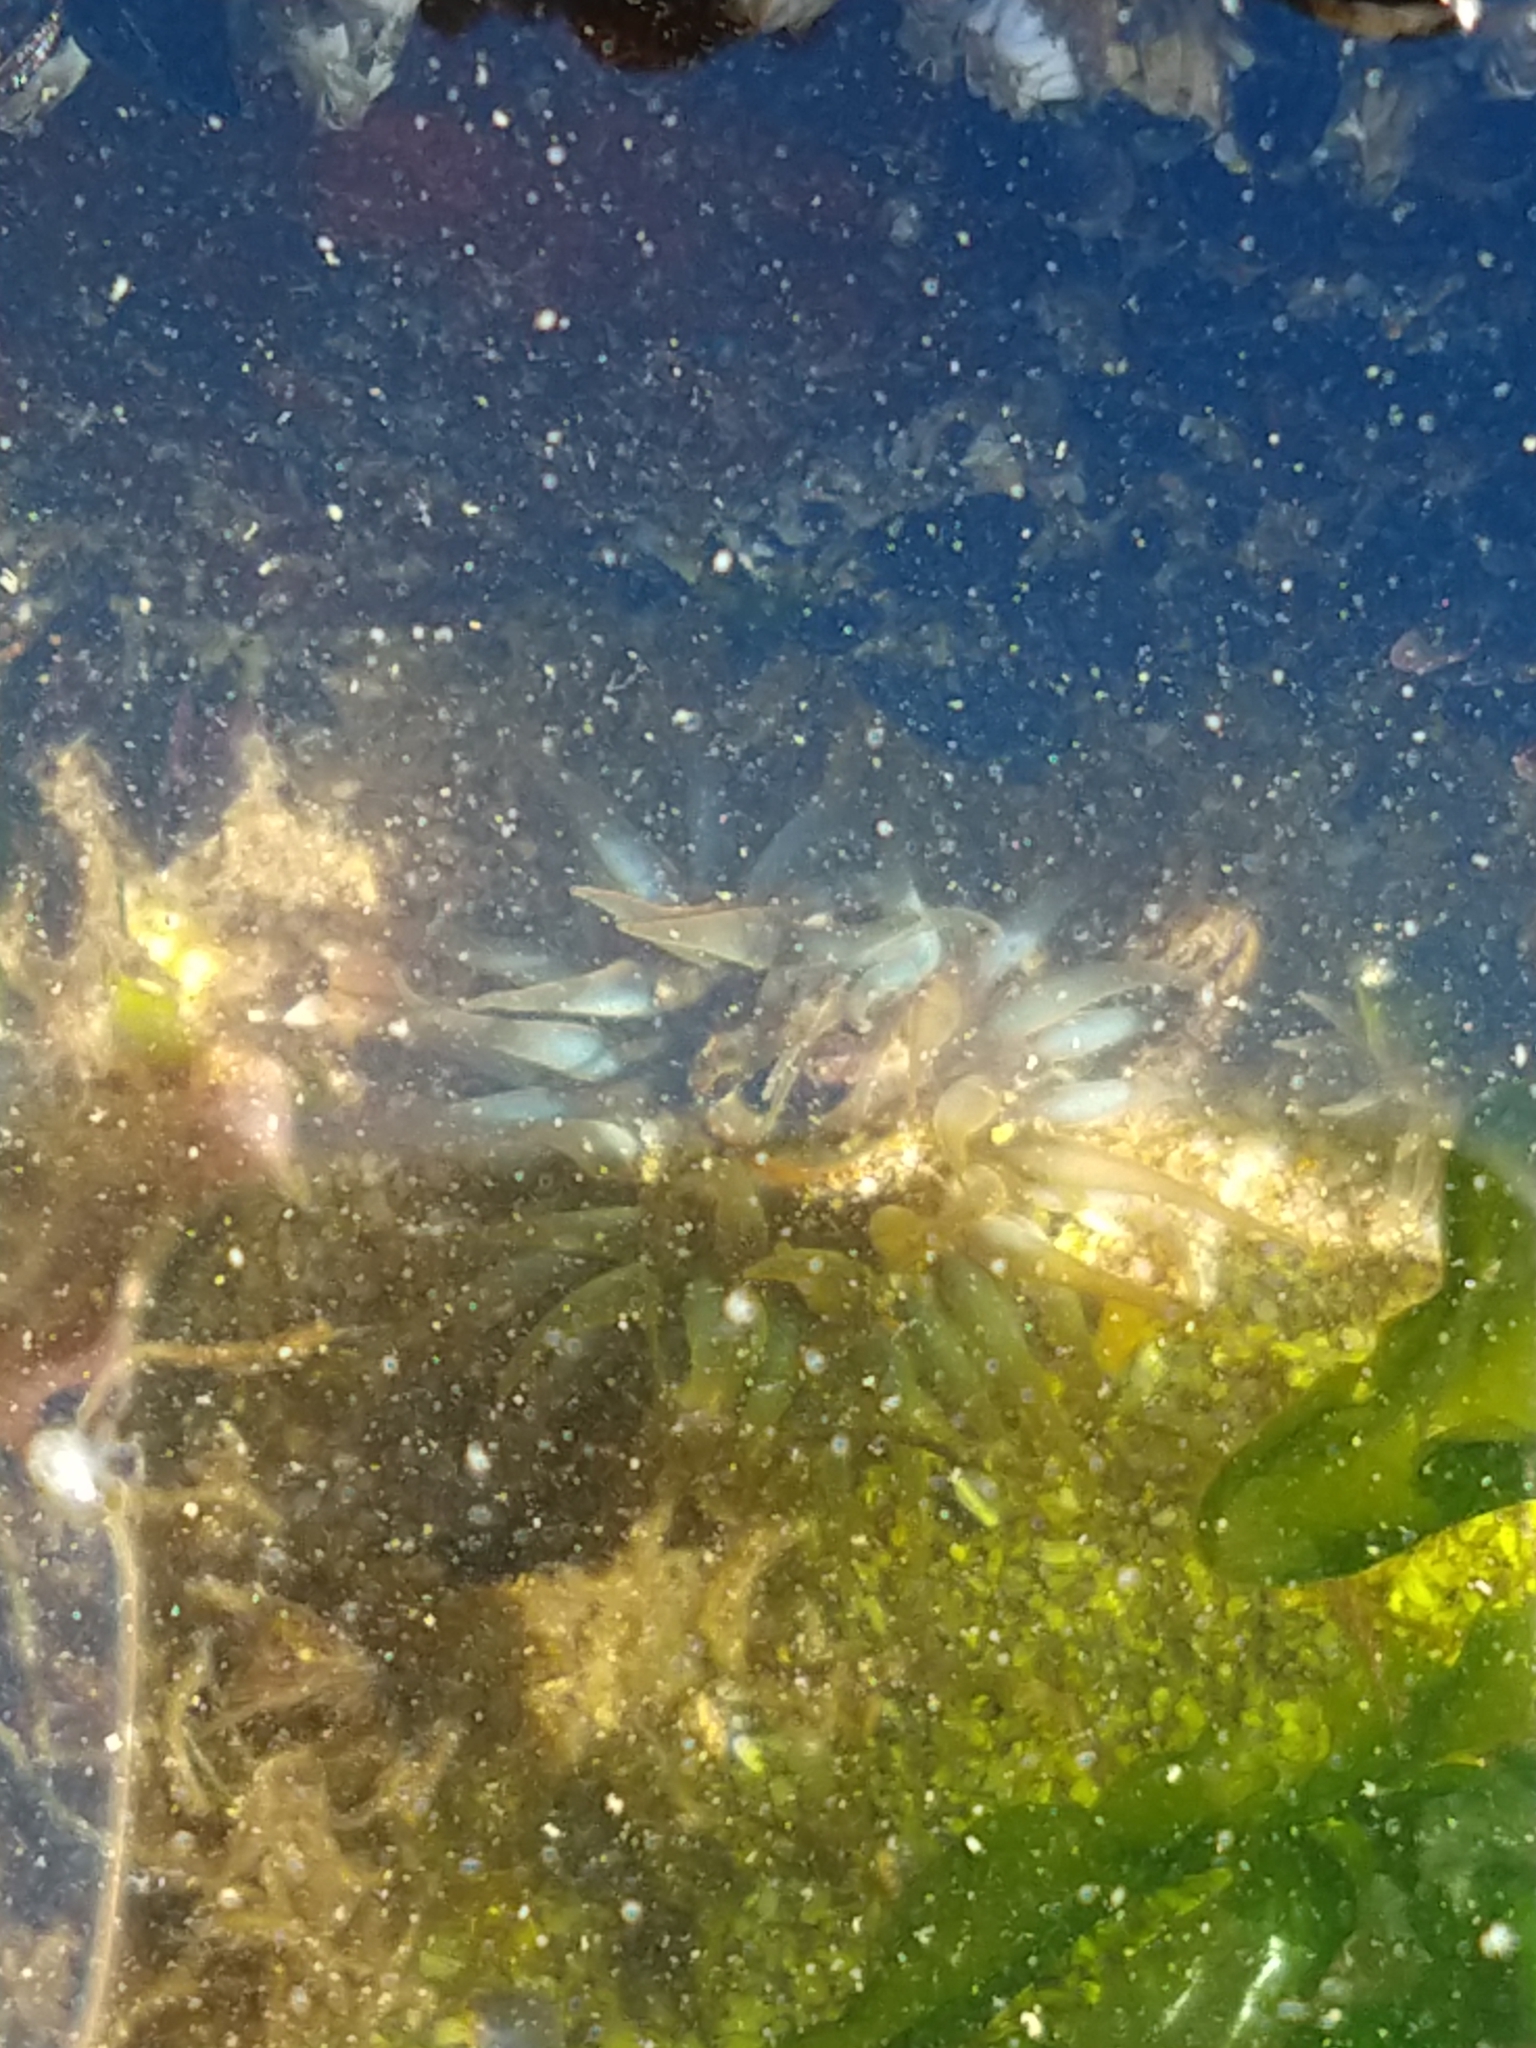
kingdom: Animalia
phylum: Cnidaria
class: Anthozoa
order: Actiniaria
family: Actiniidae
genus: Bunodosoma
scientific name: Bunodosoma zamponii
